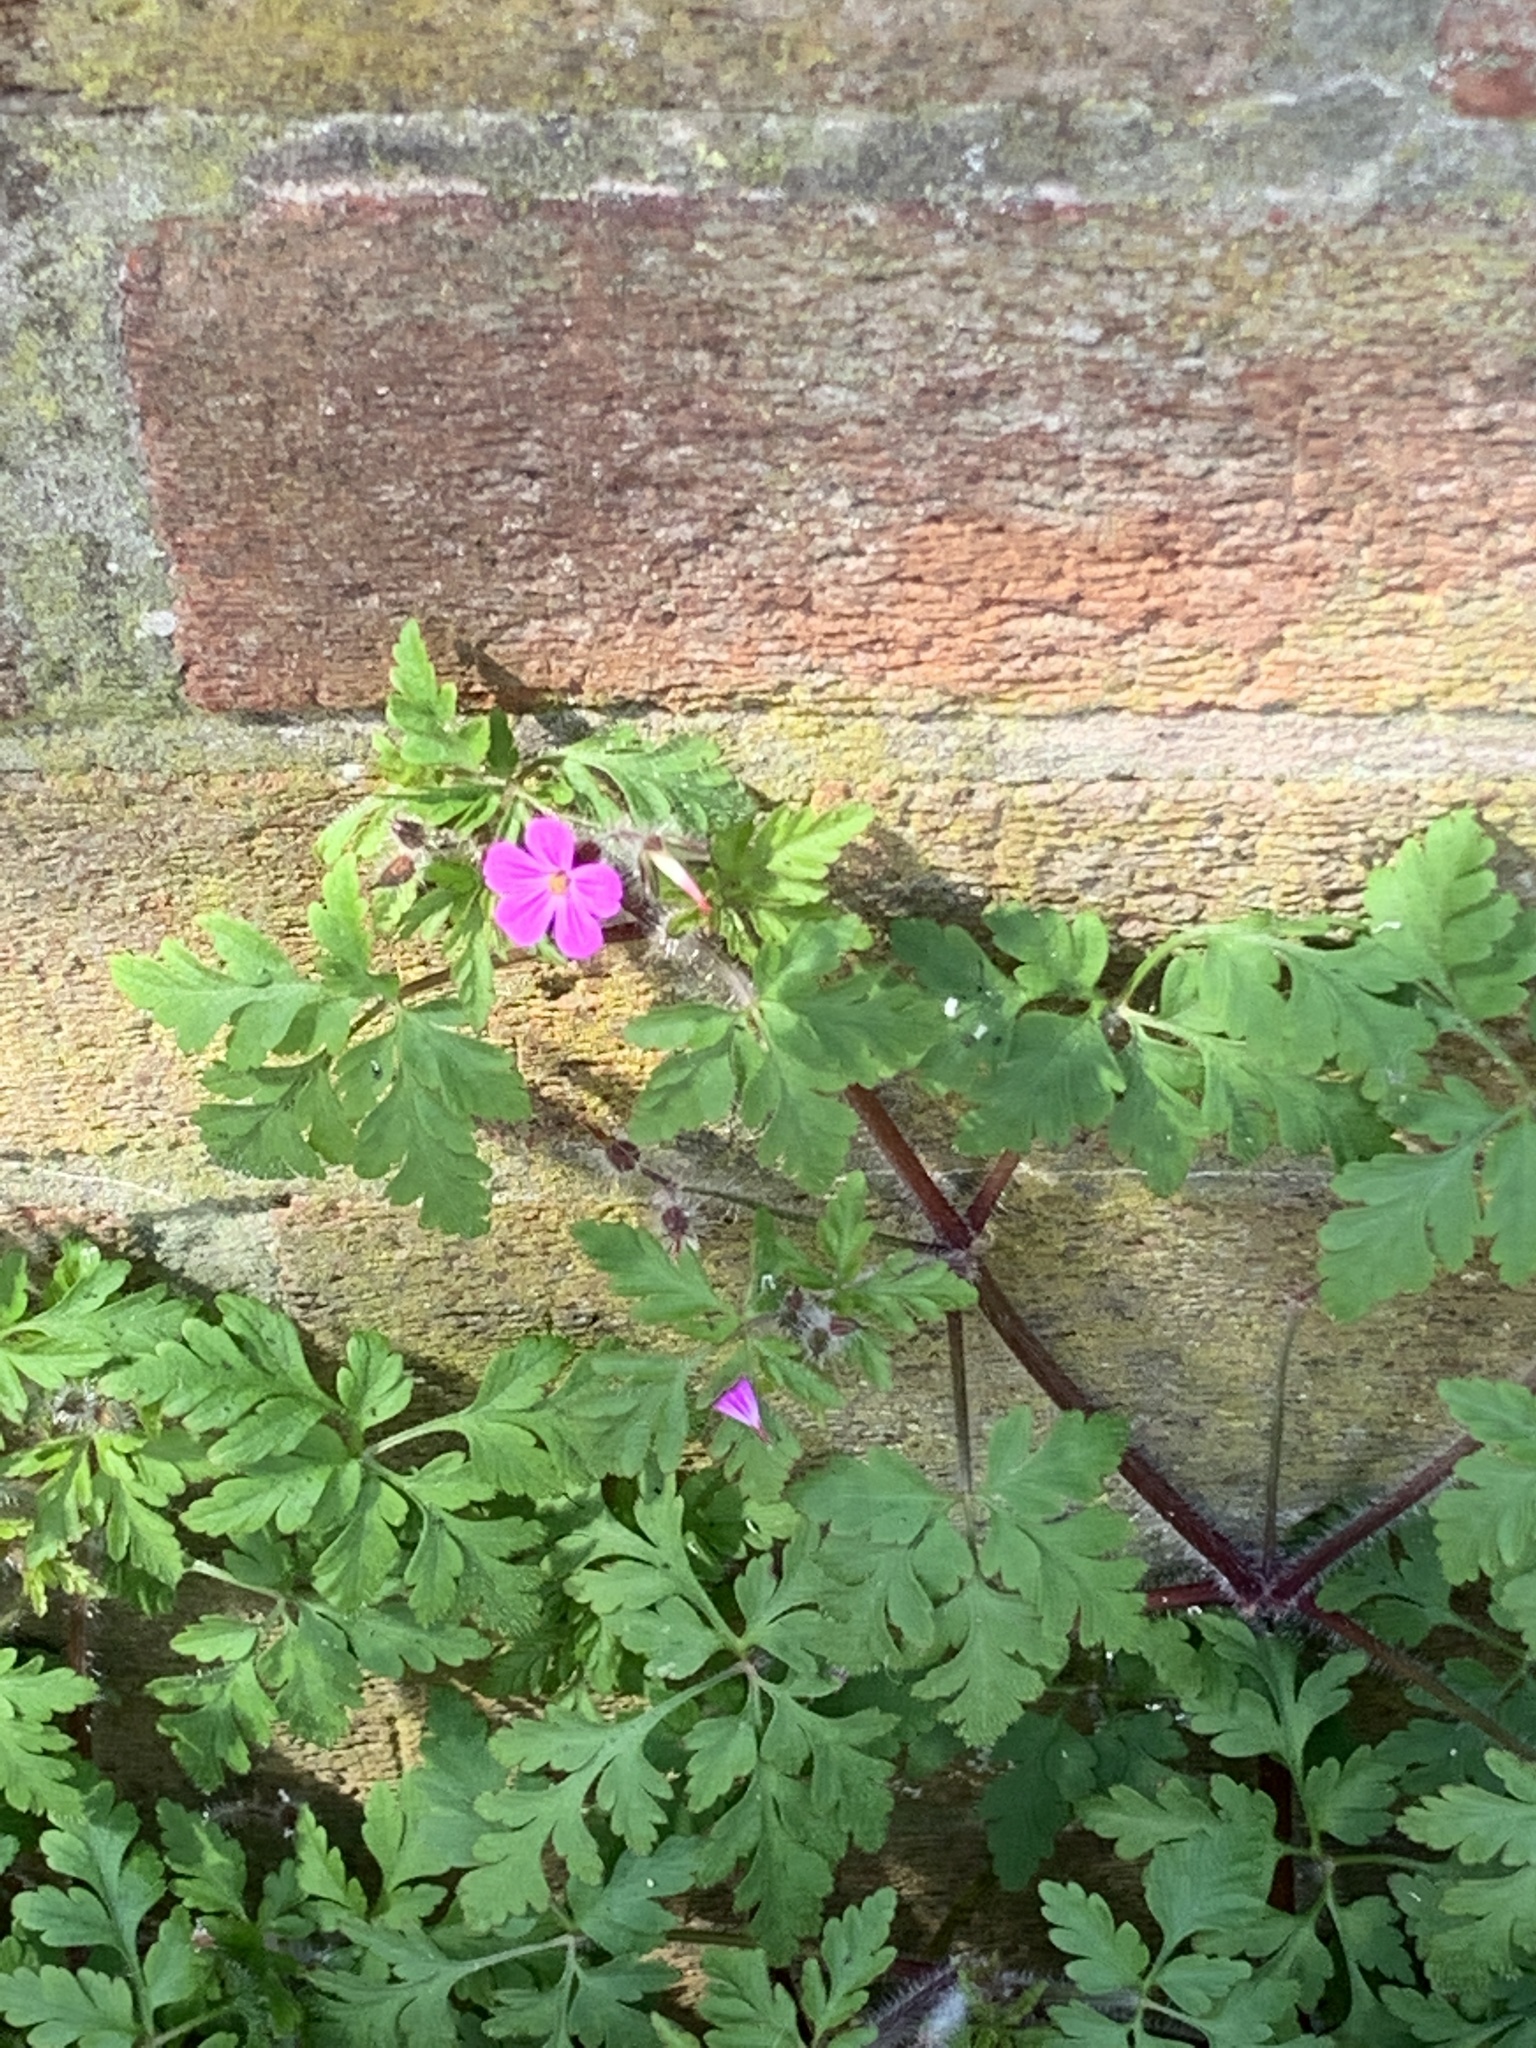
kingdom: Plantae
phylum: Tracheophyta
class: Magnoliopsida
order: Geraniales
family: Geraniaceae
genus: Geranium
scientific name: Geranium robertianum
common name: Herb-robert
